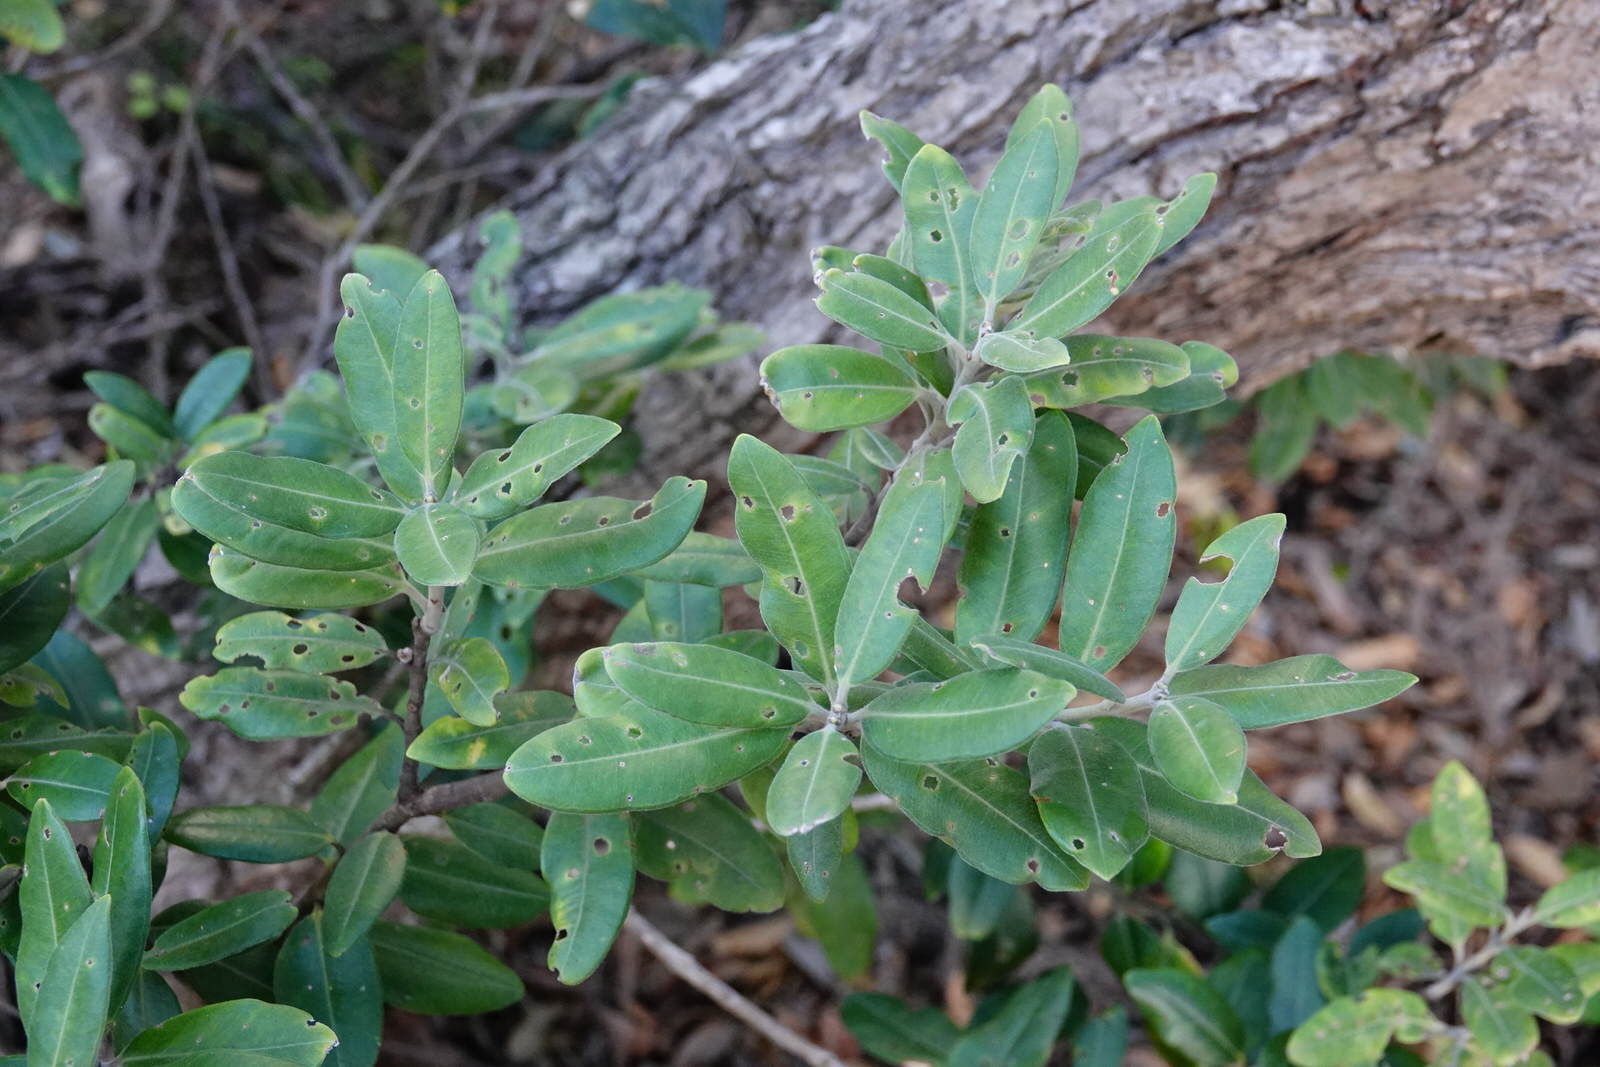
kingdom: Plantae
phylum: Tracheophyta
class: Magnoliopsida
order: Myrtales
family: Myrtaceae
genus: Metrosideros
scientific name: Metrosideros excelsa
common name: New zealand christmastree
